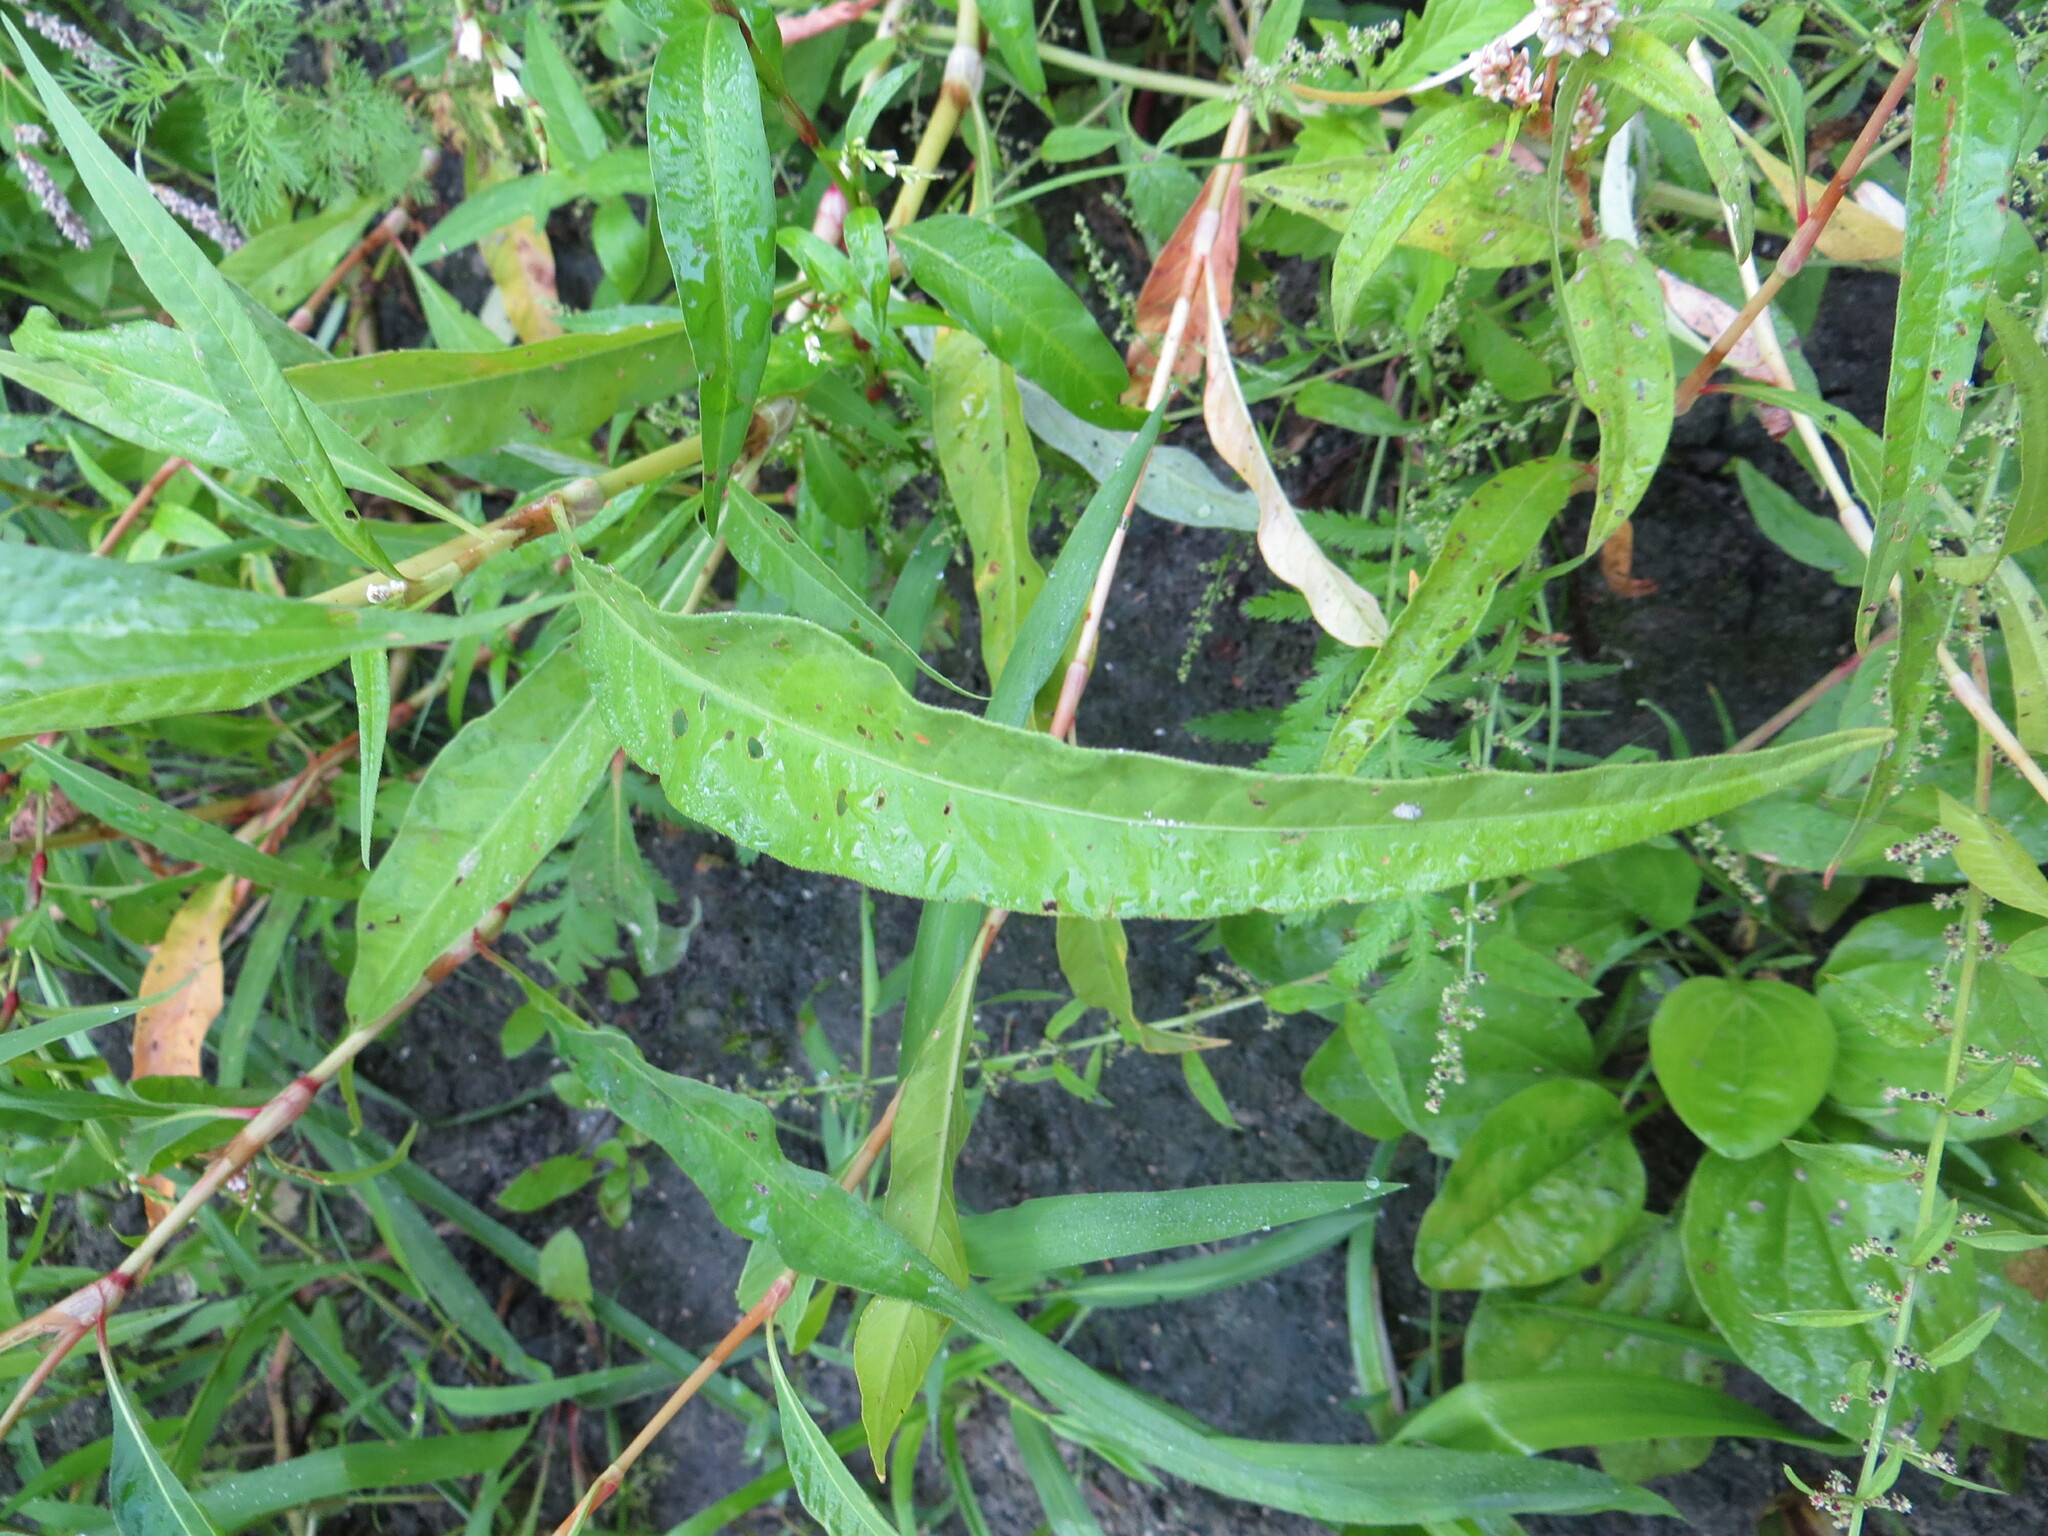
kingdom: Plantae
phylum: Tracheophyta
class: Magnoliopsida
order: Caryophyllales
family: Polygonaceae
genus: Persicaria
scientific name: Persicaria lapathifolia
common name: Curlytop knotweed
